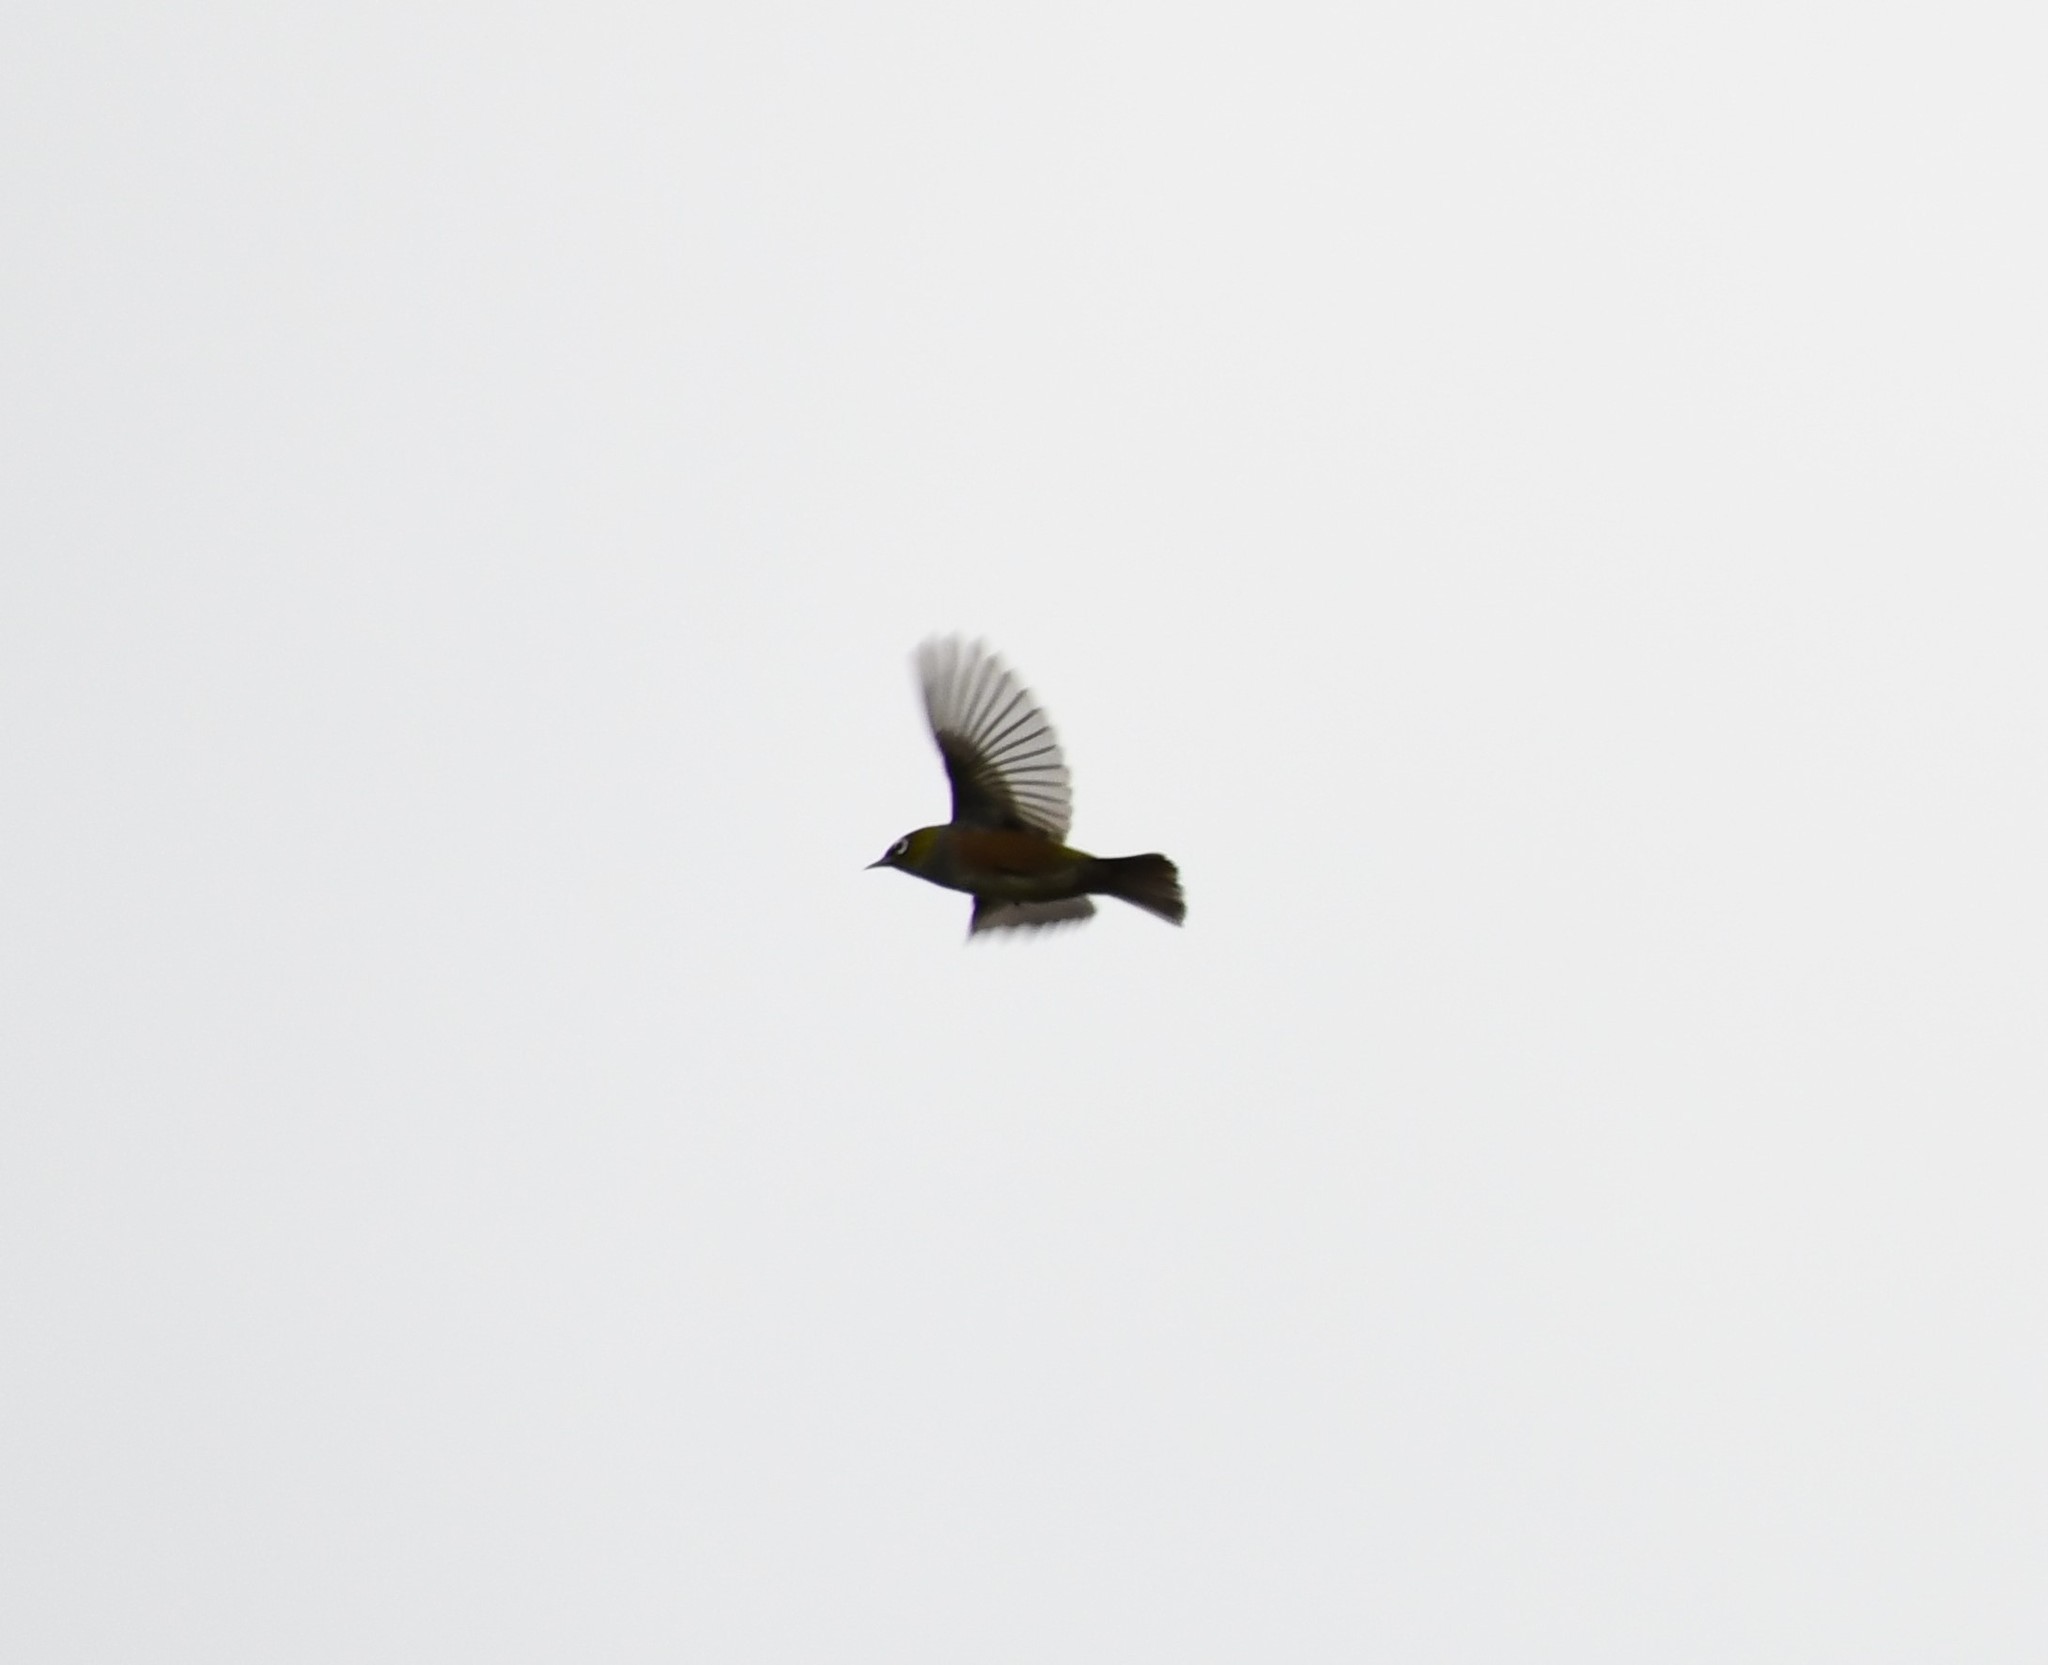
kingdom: Animalia
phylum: Chordata
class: Aves
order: Passeriformes
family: Zosteropidae
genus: Zosterops
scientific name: Zosterops lateralis
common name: Silvereye
